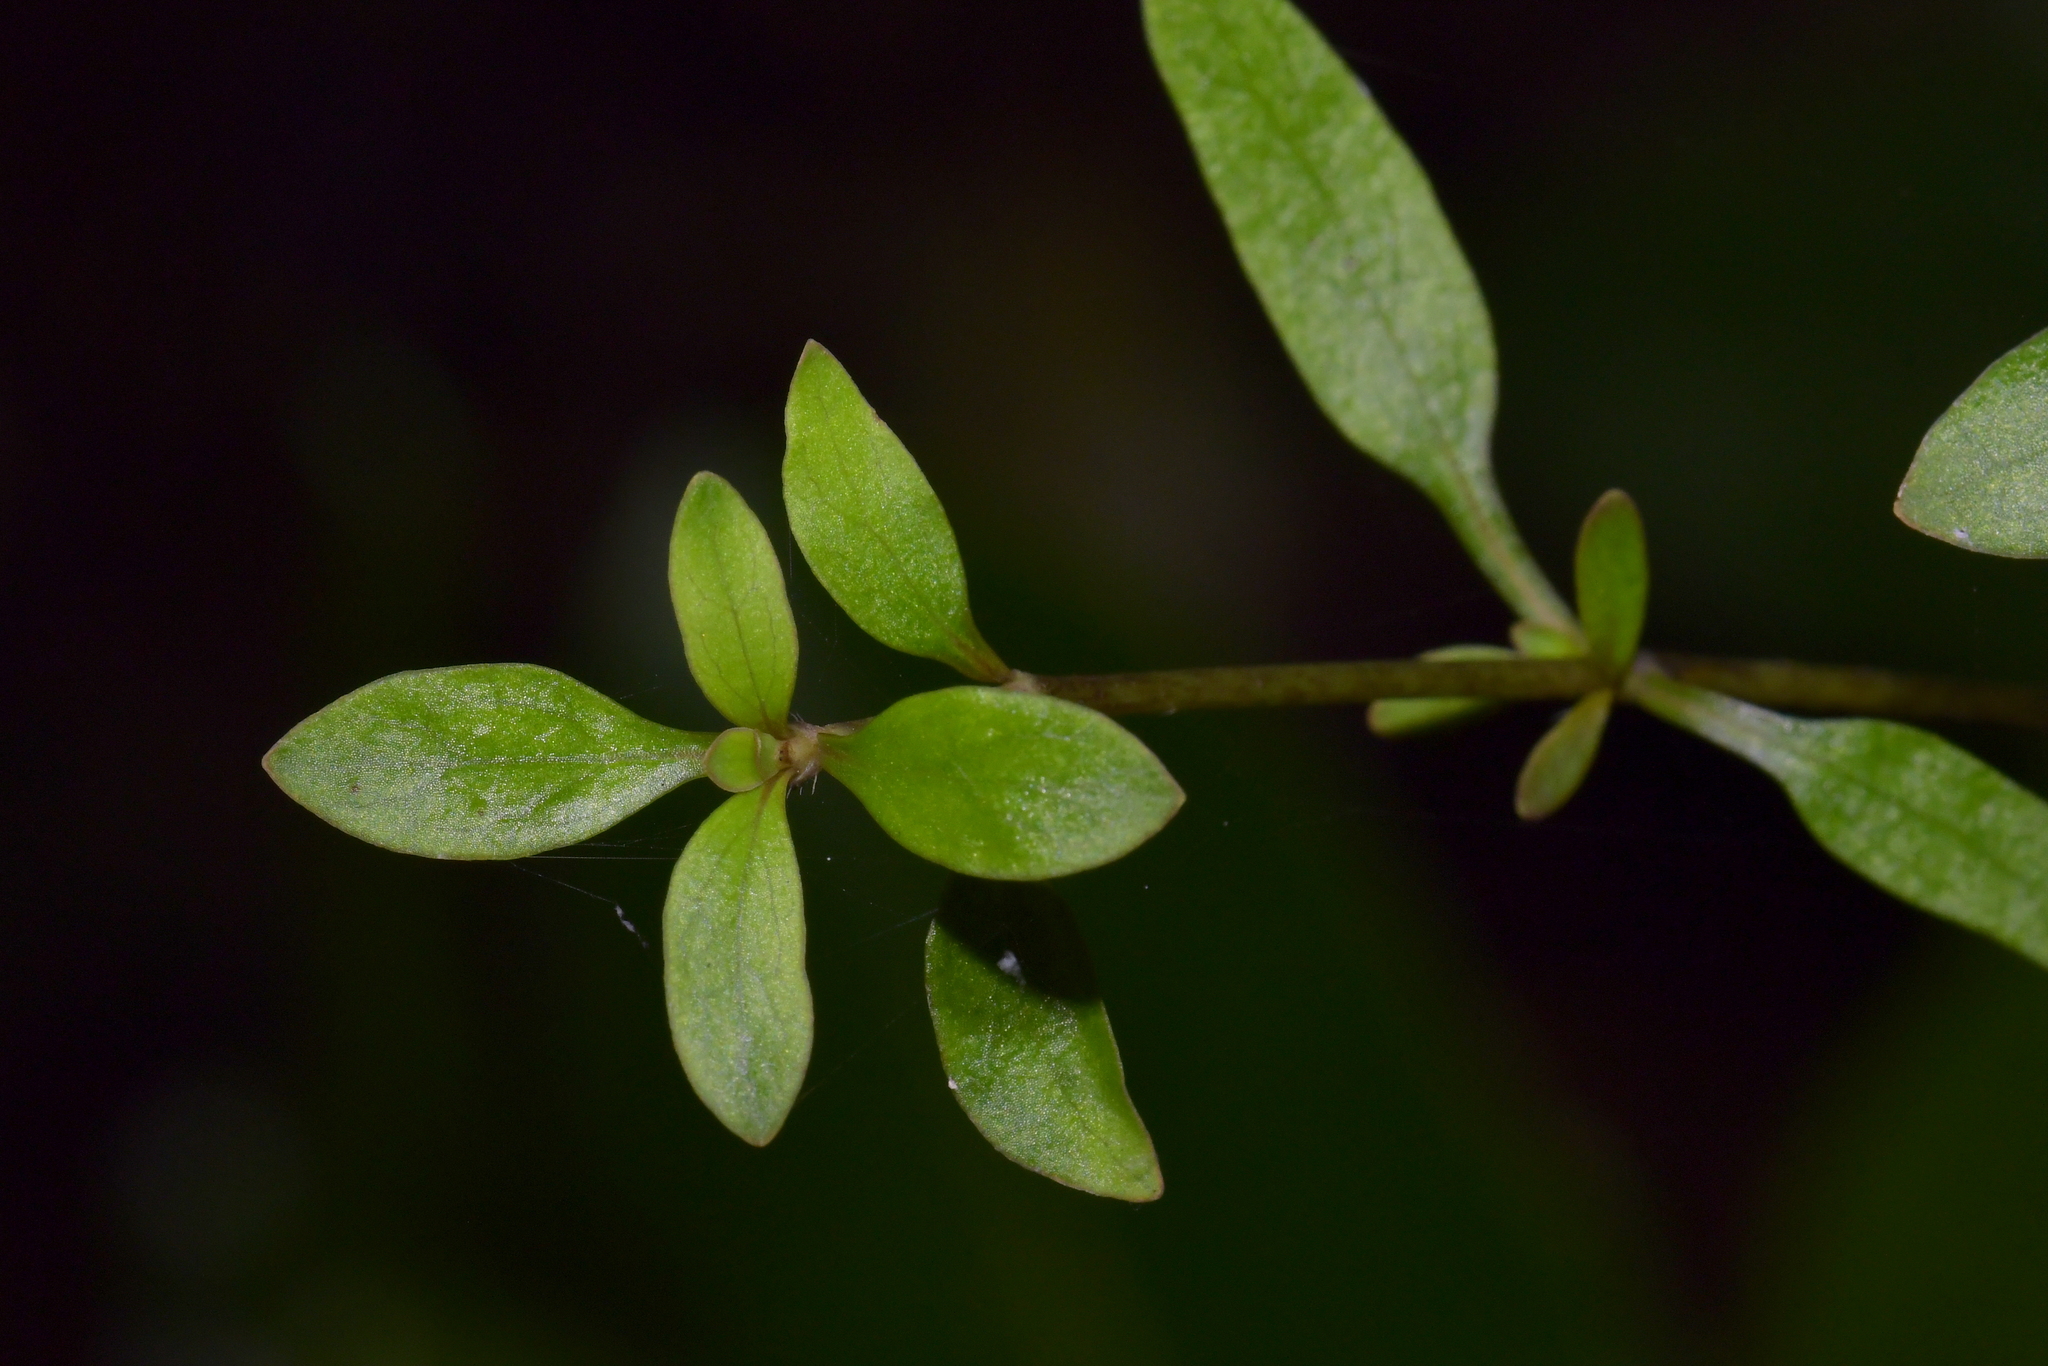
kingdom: Plantae
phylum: Tracheophyta
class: Magnoliopsida
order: Gentianales
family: Rubiaceae
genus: Coprosma
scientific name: Coprosma rhamnoides
